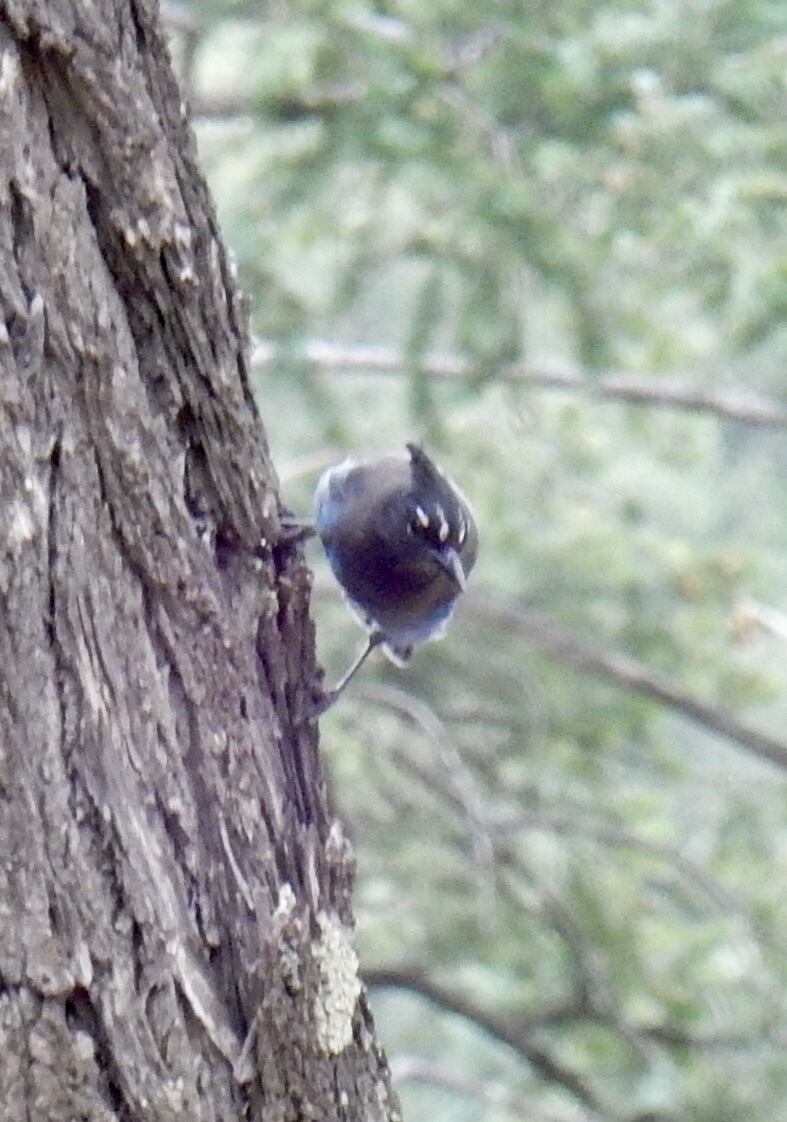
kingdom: Animalia
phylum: Chordata
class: Aves
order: Passeriformes
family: Corvidae
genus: Cyanocitta
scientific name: Cyanocitta stelleri
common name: Steller's jay
